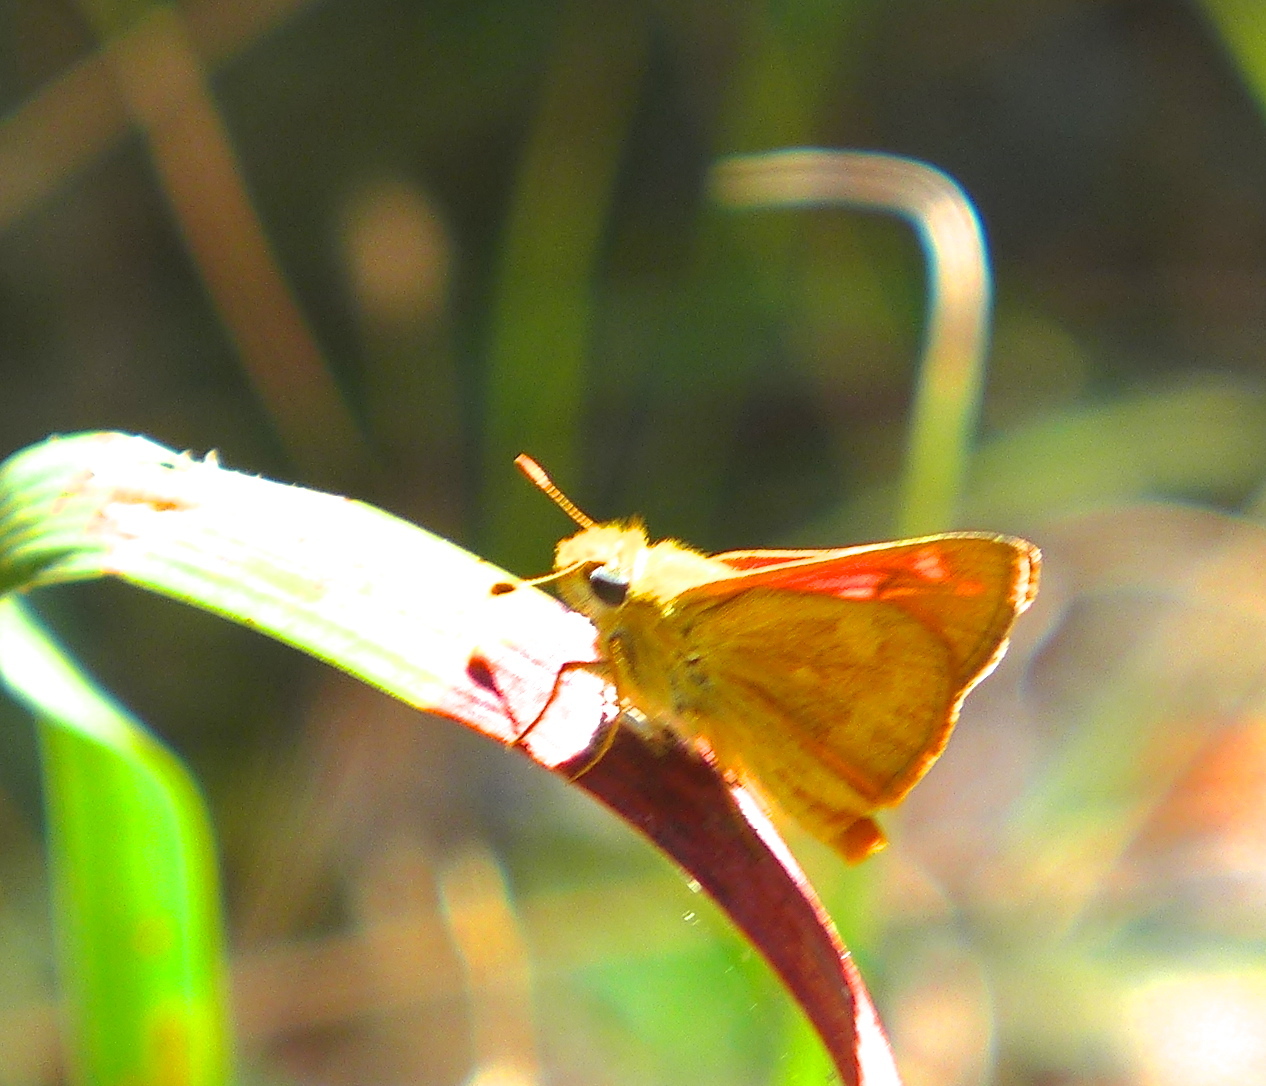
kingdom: Animalia
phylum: Arthropoda
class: Insecta
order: Lepidoptera
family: Hesperiidae
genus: Ochlodes
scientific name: Ochlodes sylvanoides
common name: Woodland skipper
